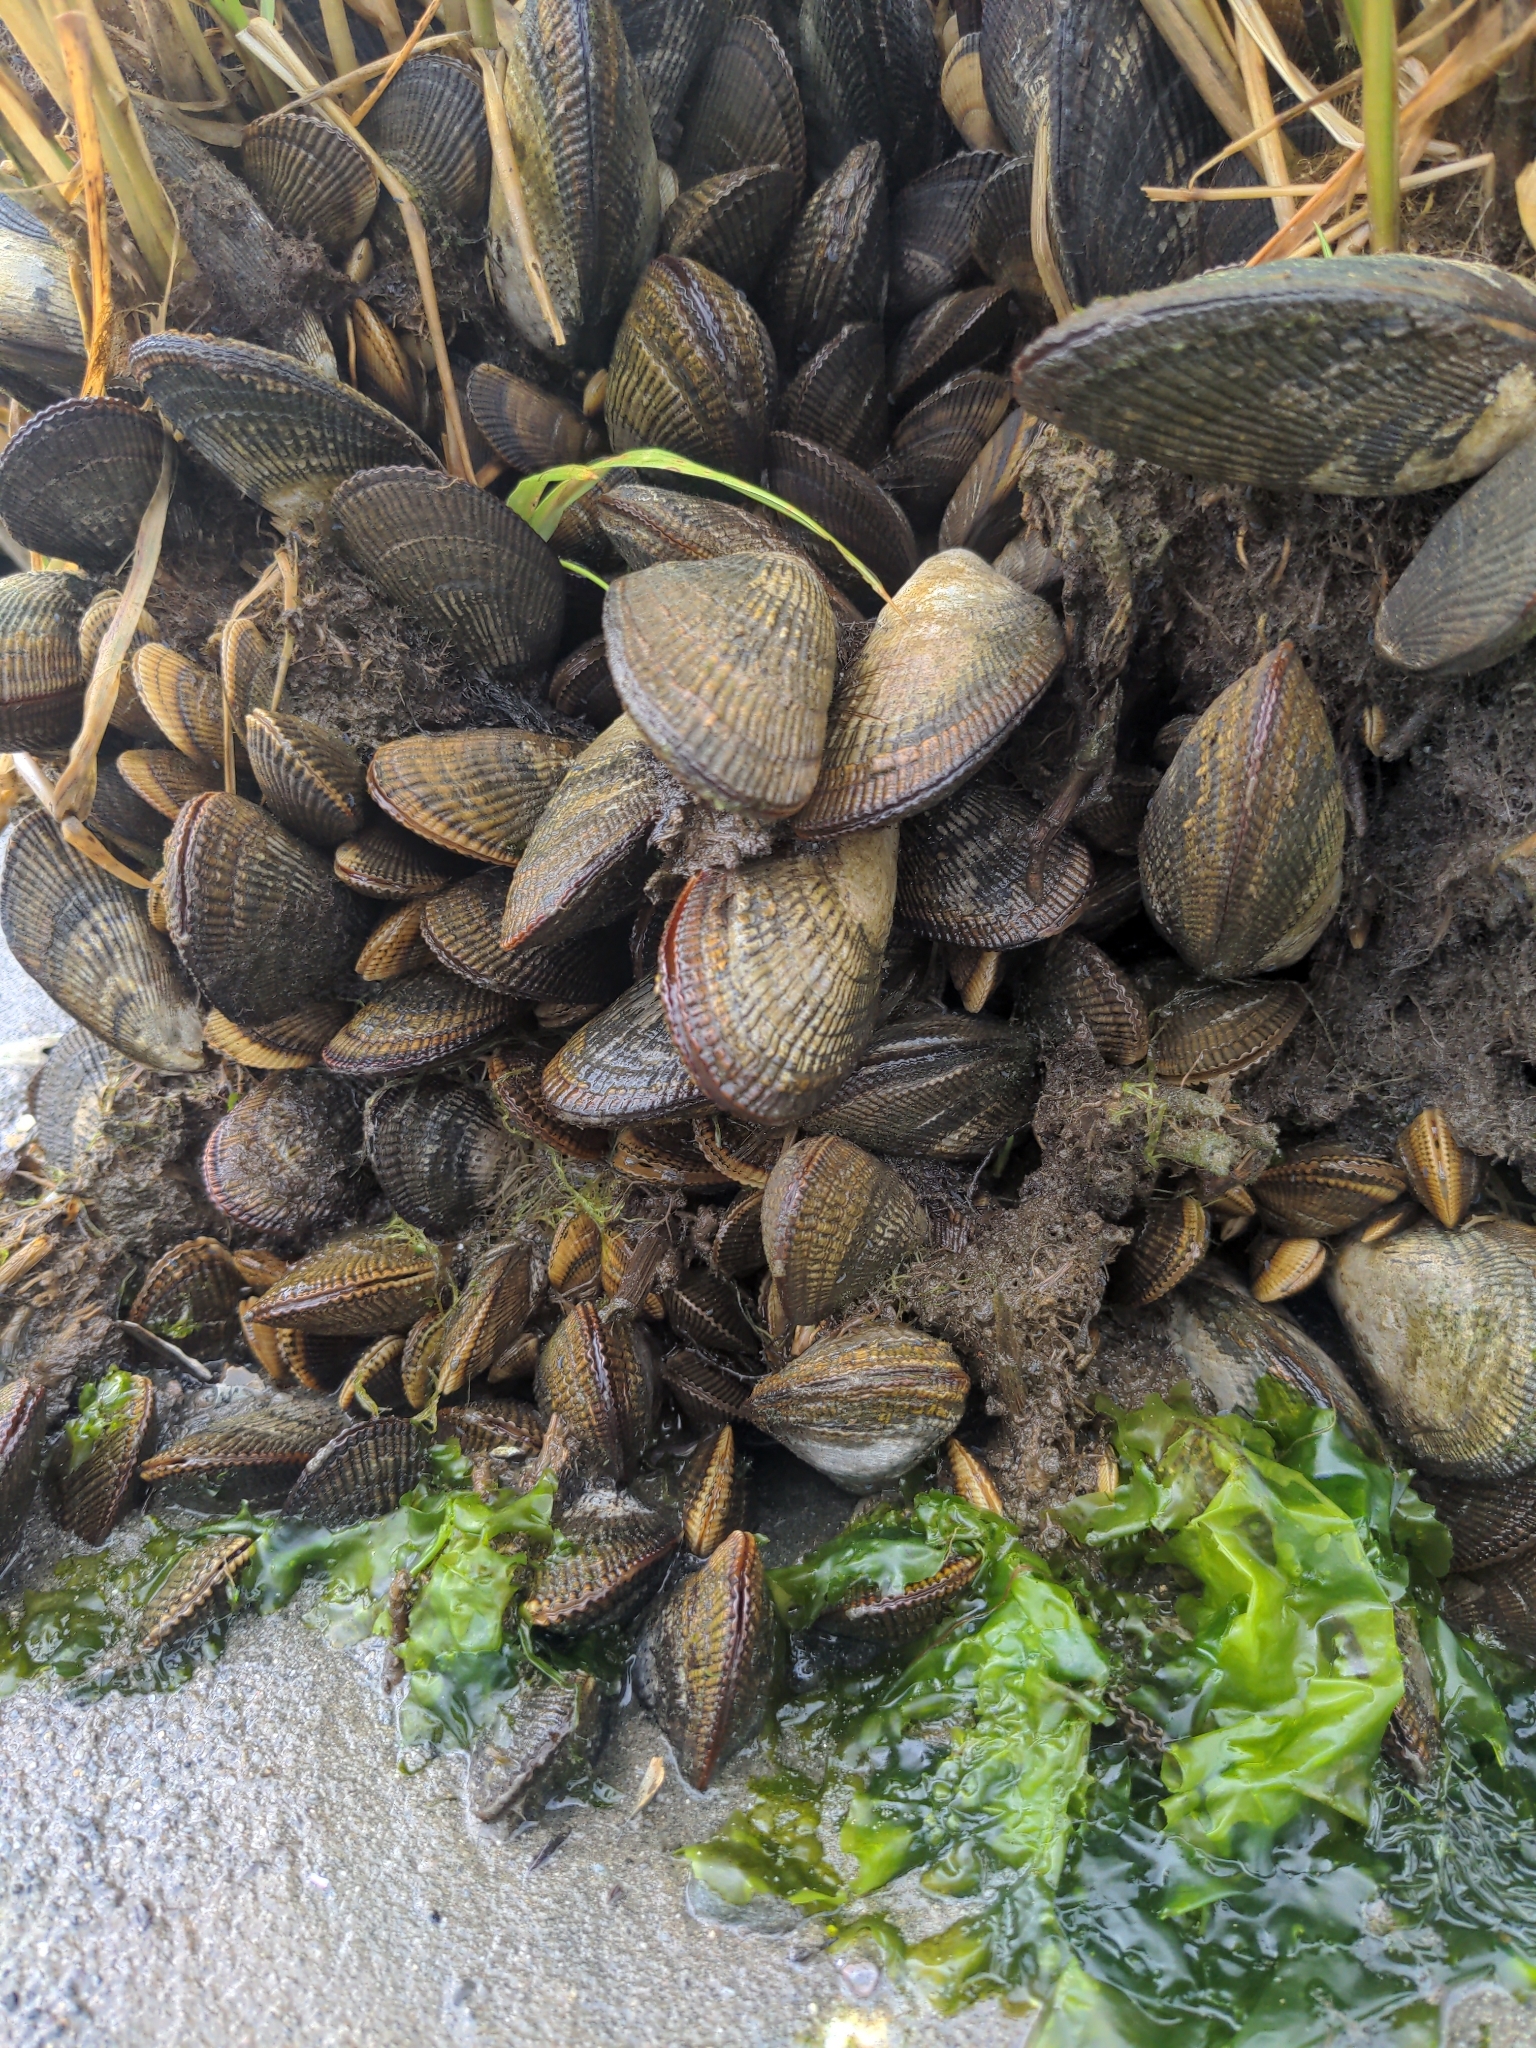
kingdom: Animalia
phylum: Mollusca
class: Bivalvia
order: Mytilida
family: Mytilidae
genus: Geukensia
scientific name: Geukensia demissa
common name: Ribbed mussel
